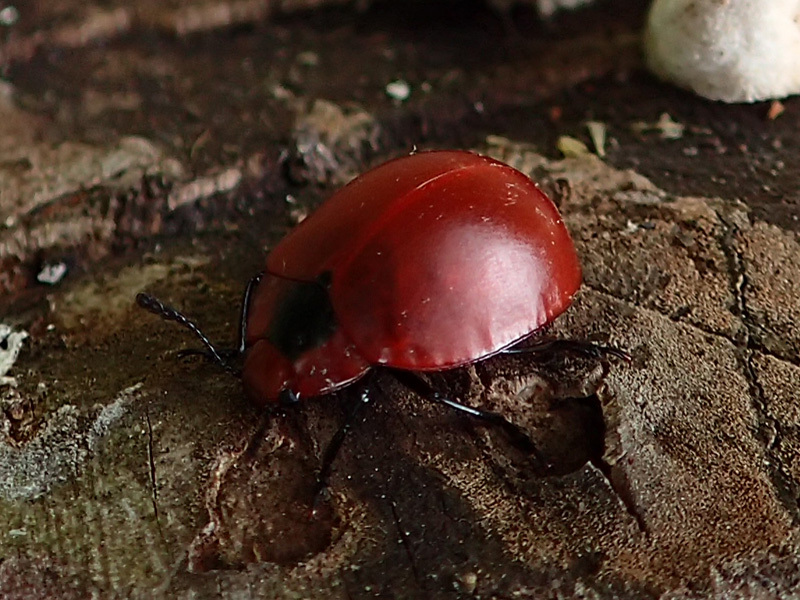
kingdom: Animalia
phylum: Arthropoda
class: Insecta
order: Coleoptera
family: Erotylidae
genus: Aegithus
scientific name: Aegithus
